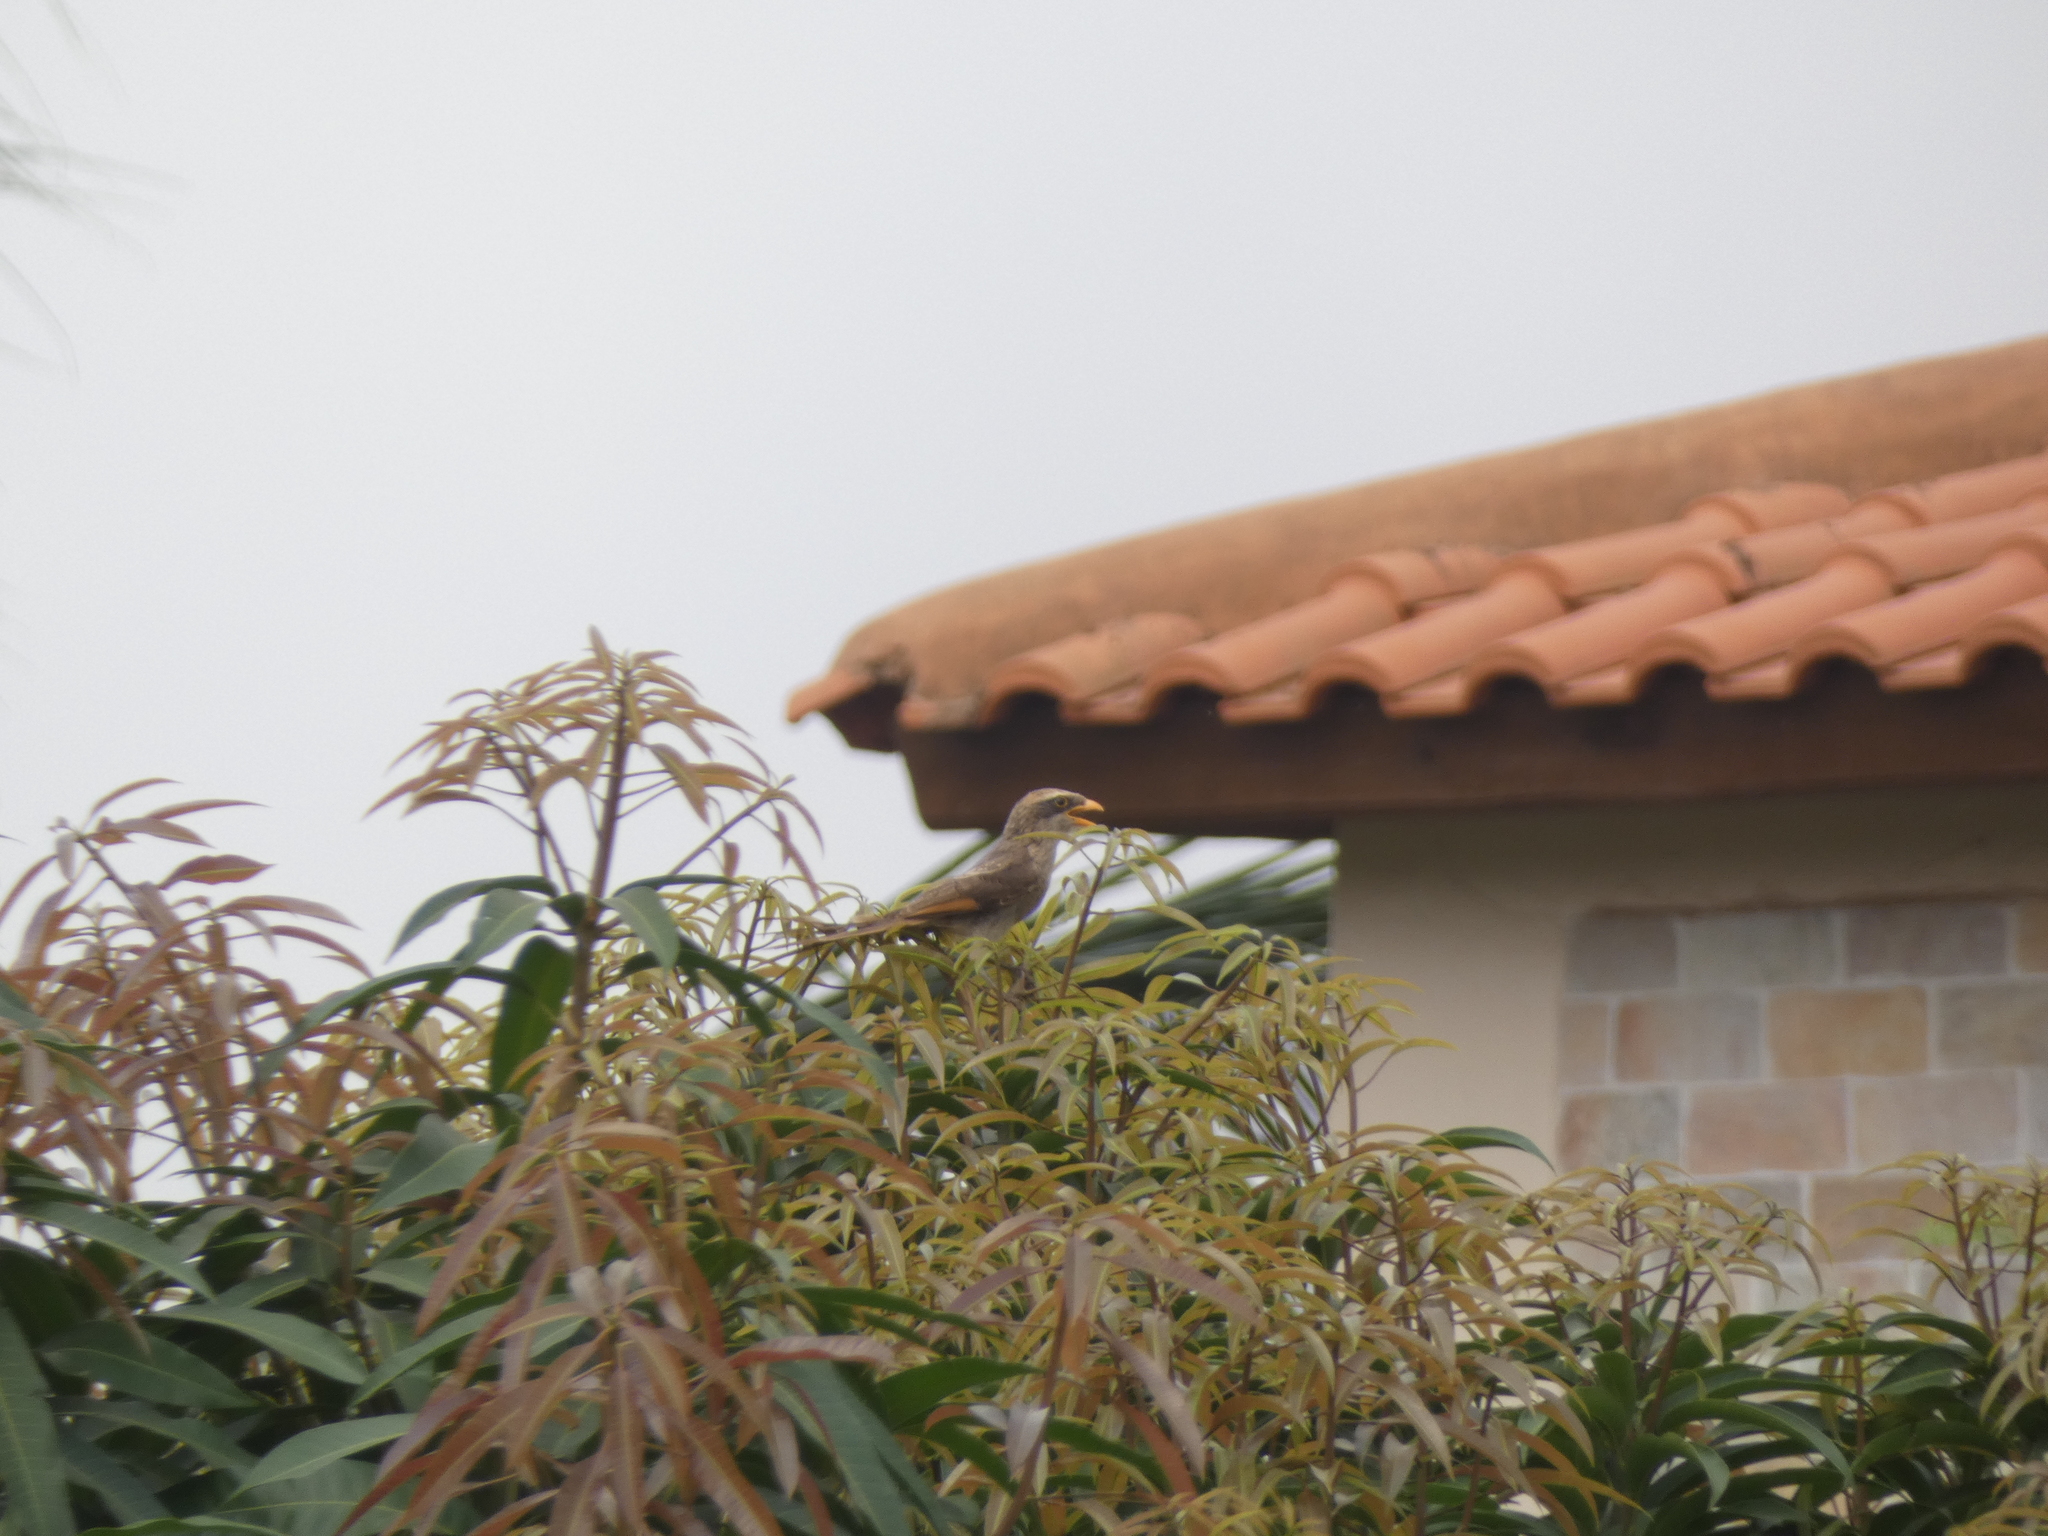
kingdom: Animalia
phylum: Chordata
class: Aves
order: Passeriformes
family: Laniidae
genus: Corvinella
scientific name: Corvinella corvina
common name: Yellow-billed shrike
